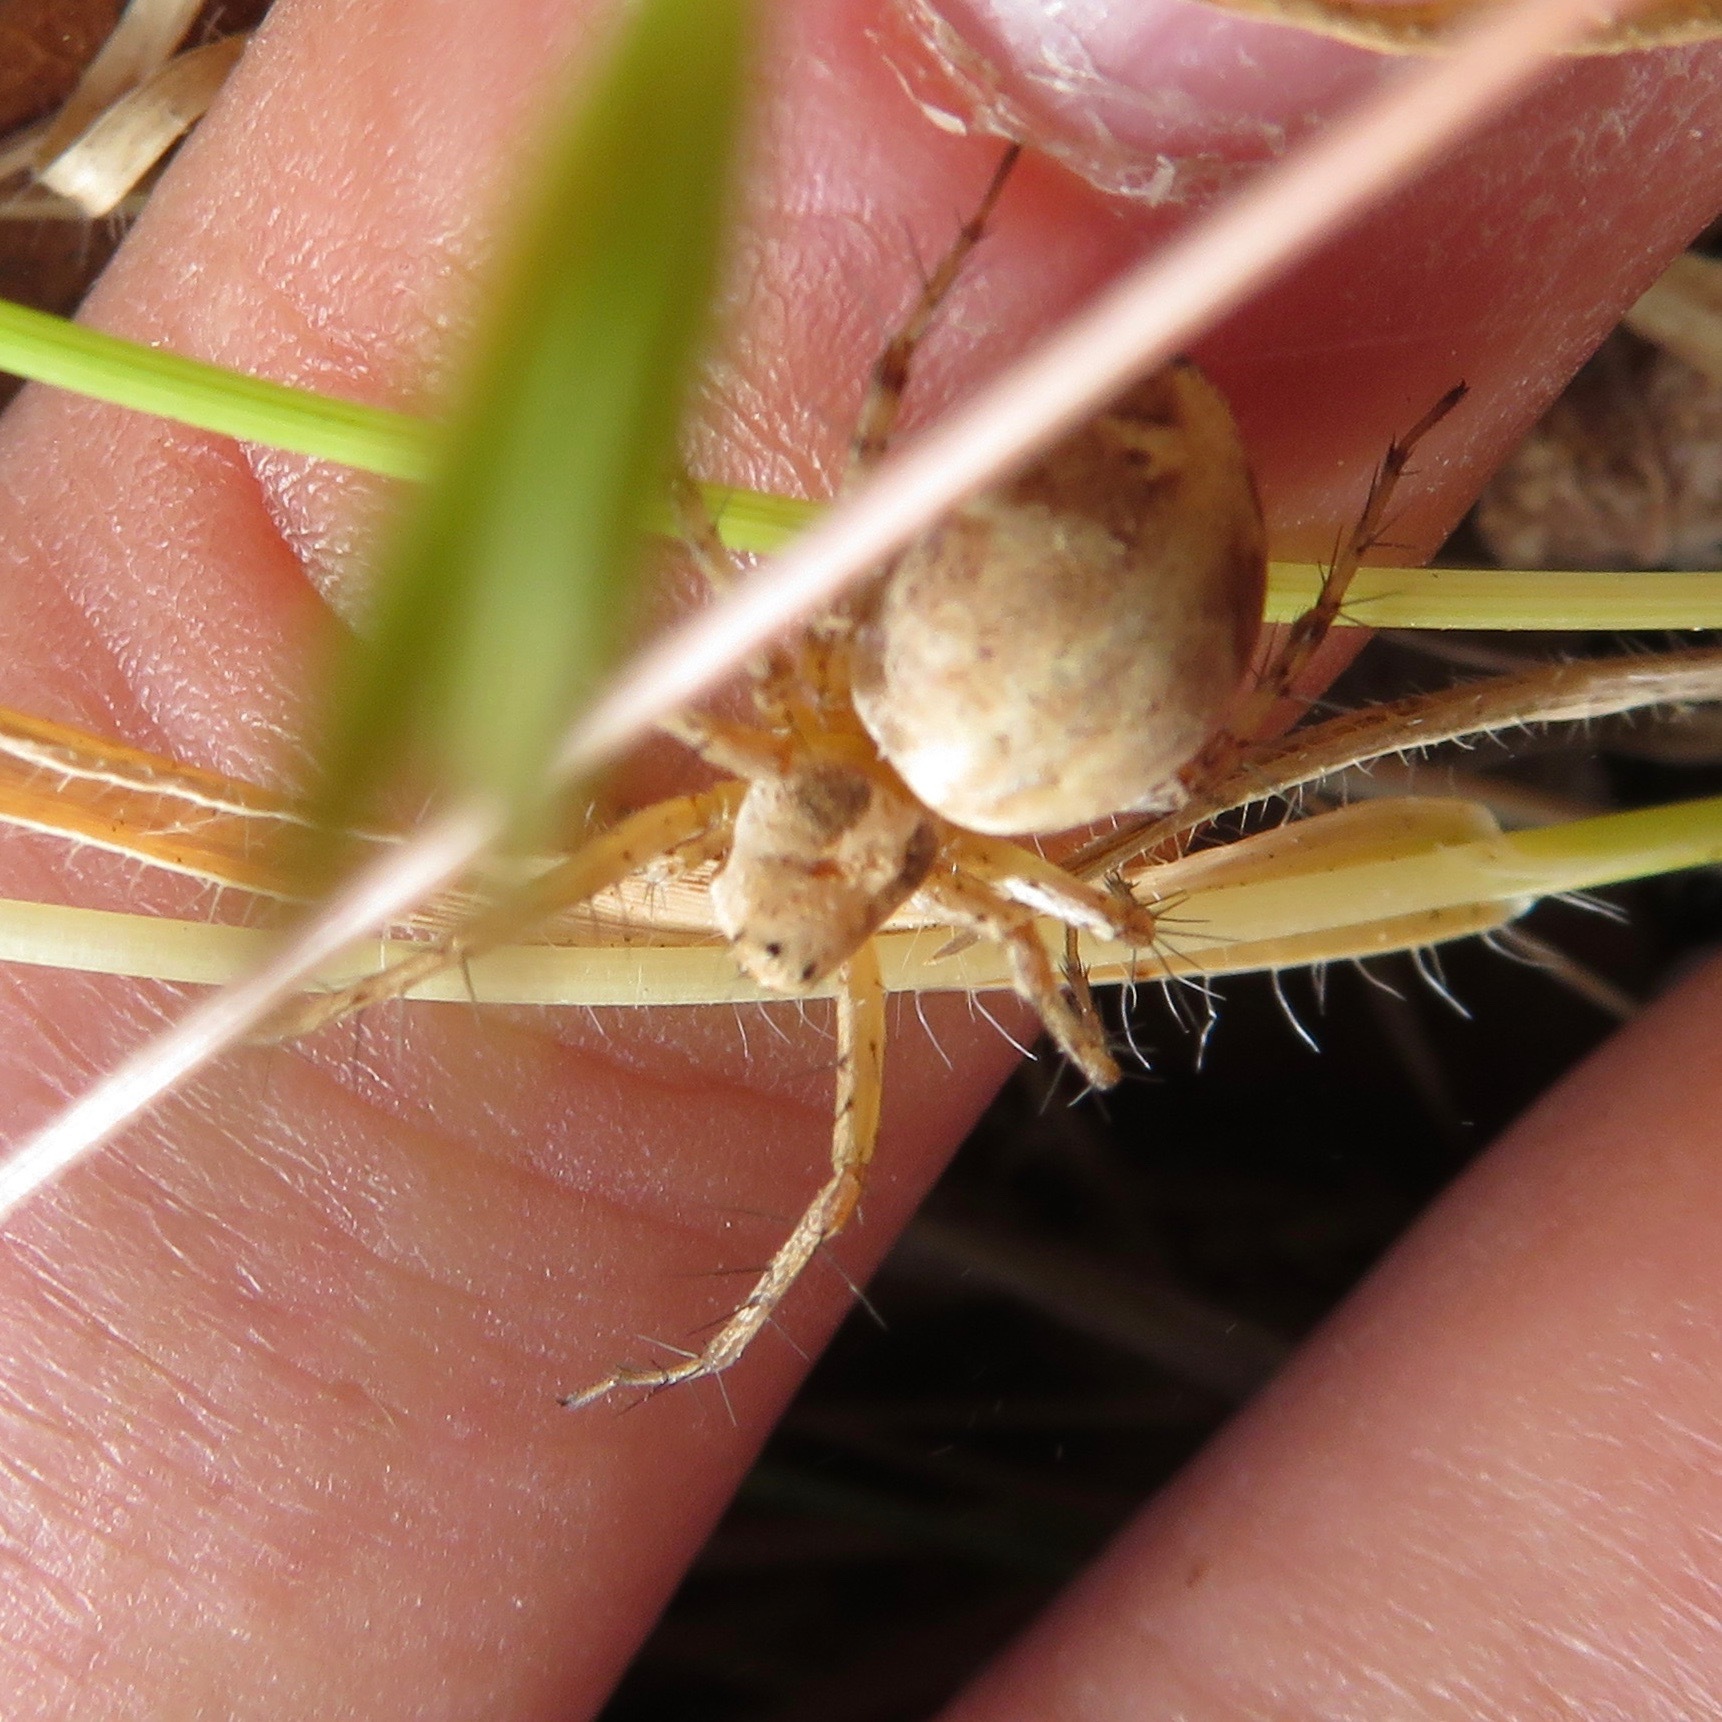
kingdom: Animalia
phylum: Arthropoda
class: Arachnida
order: Araneae
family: Oxyopidae
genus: Oxyopes
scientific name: Oxyopes scalaris
